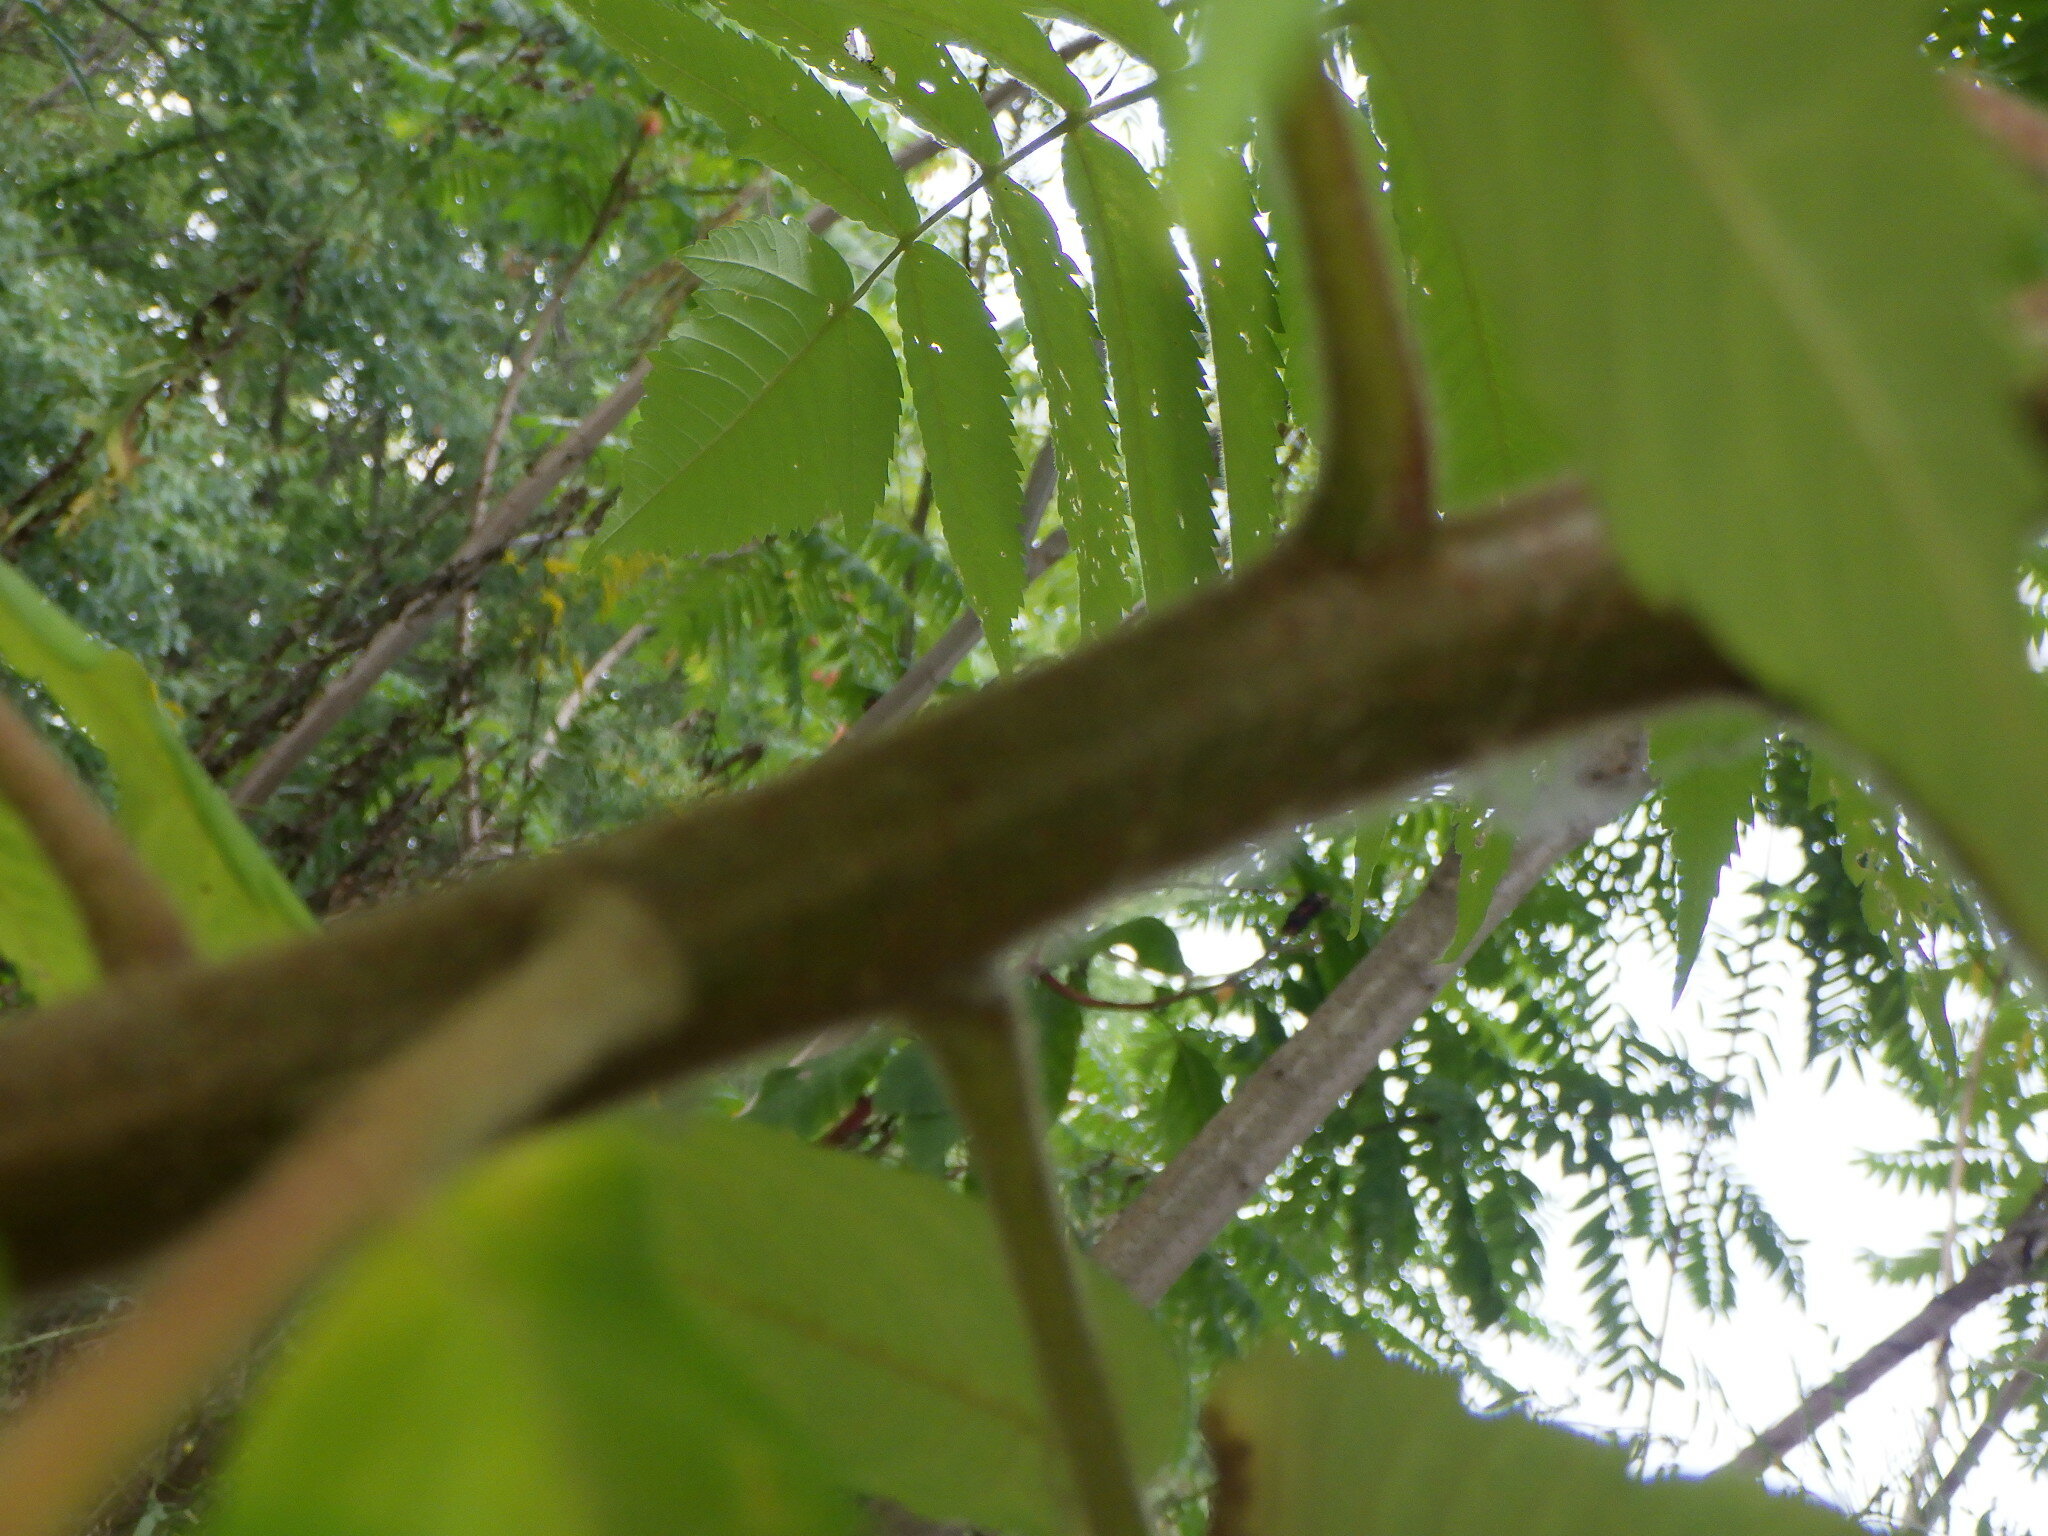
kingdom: Plantae
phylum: Tracheophyta
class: Magnoliopsida
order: Sapindales
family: Anacardiaceae
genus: Rhus
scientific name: Rhus typhina
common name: Staghorn sumac
